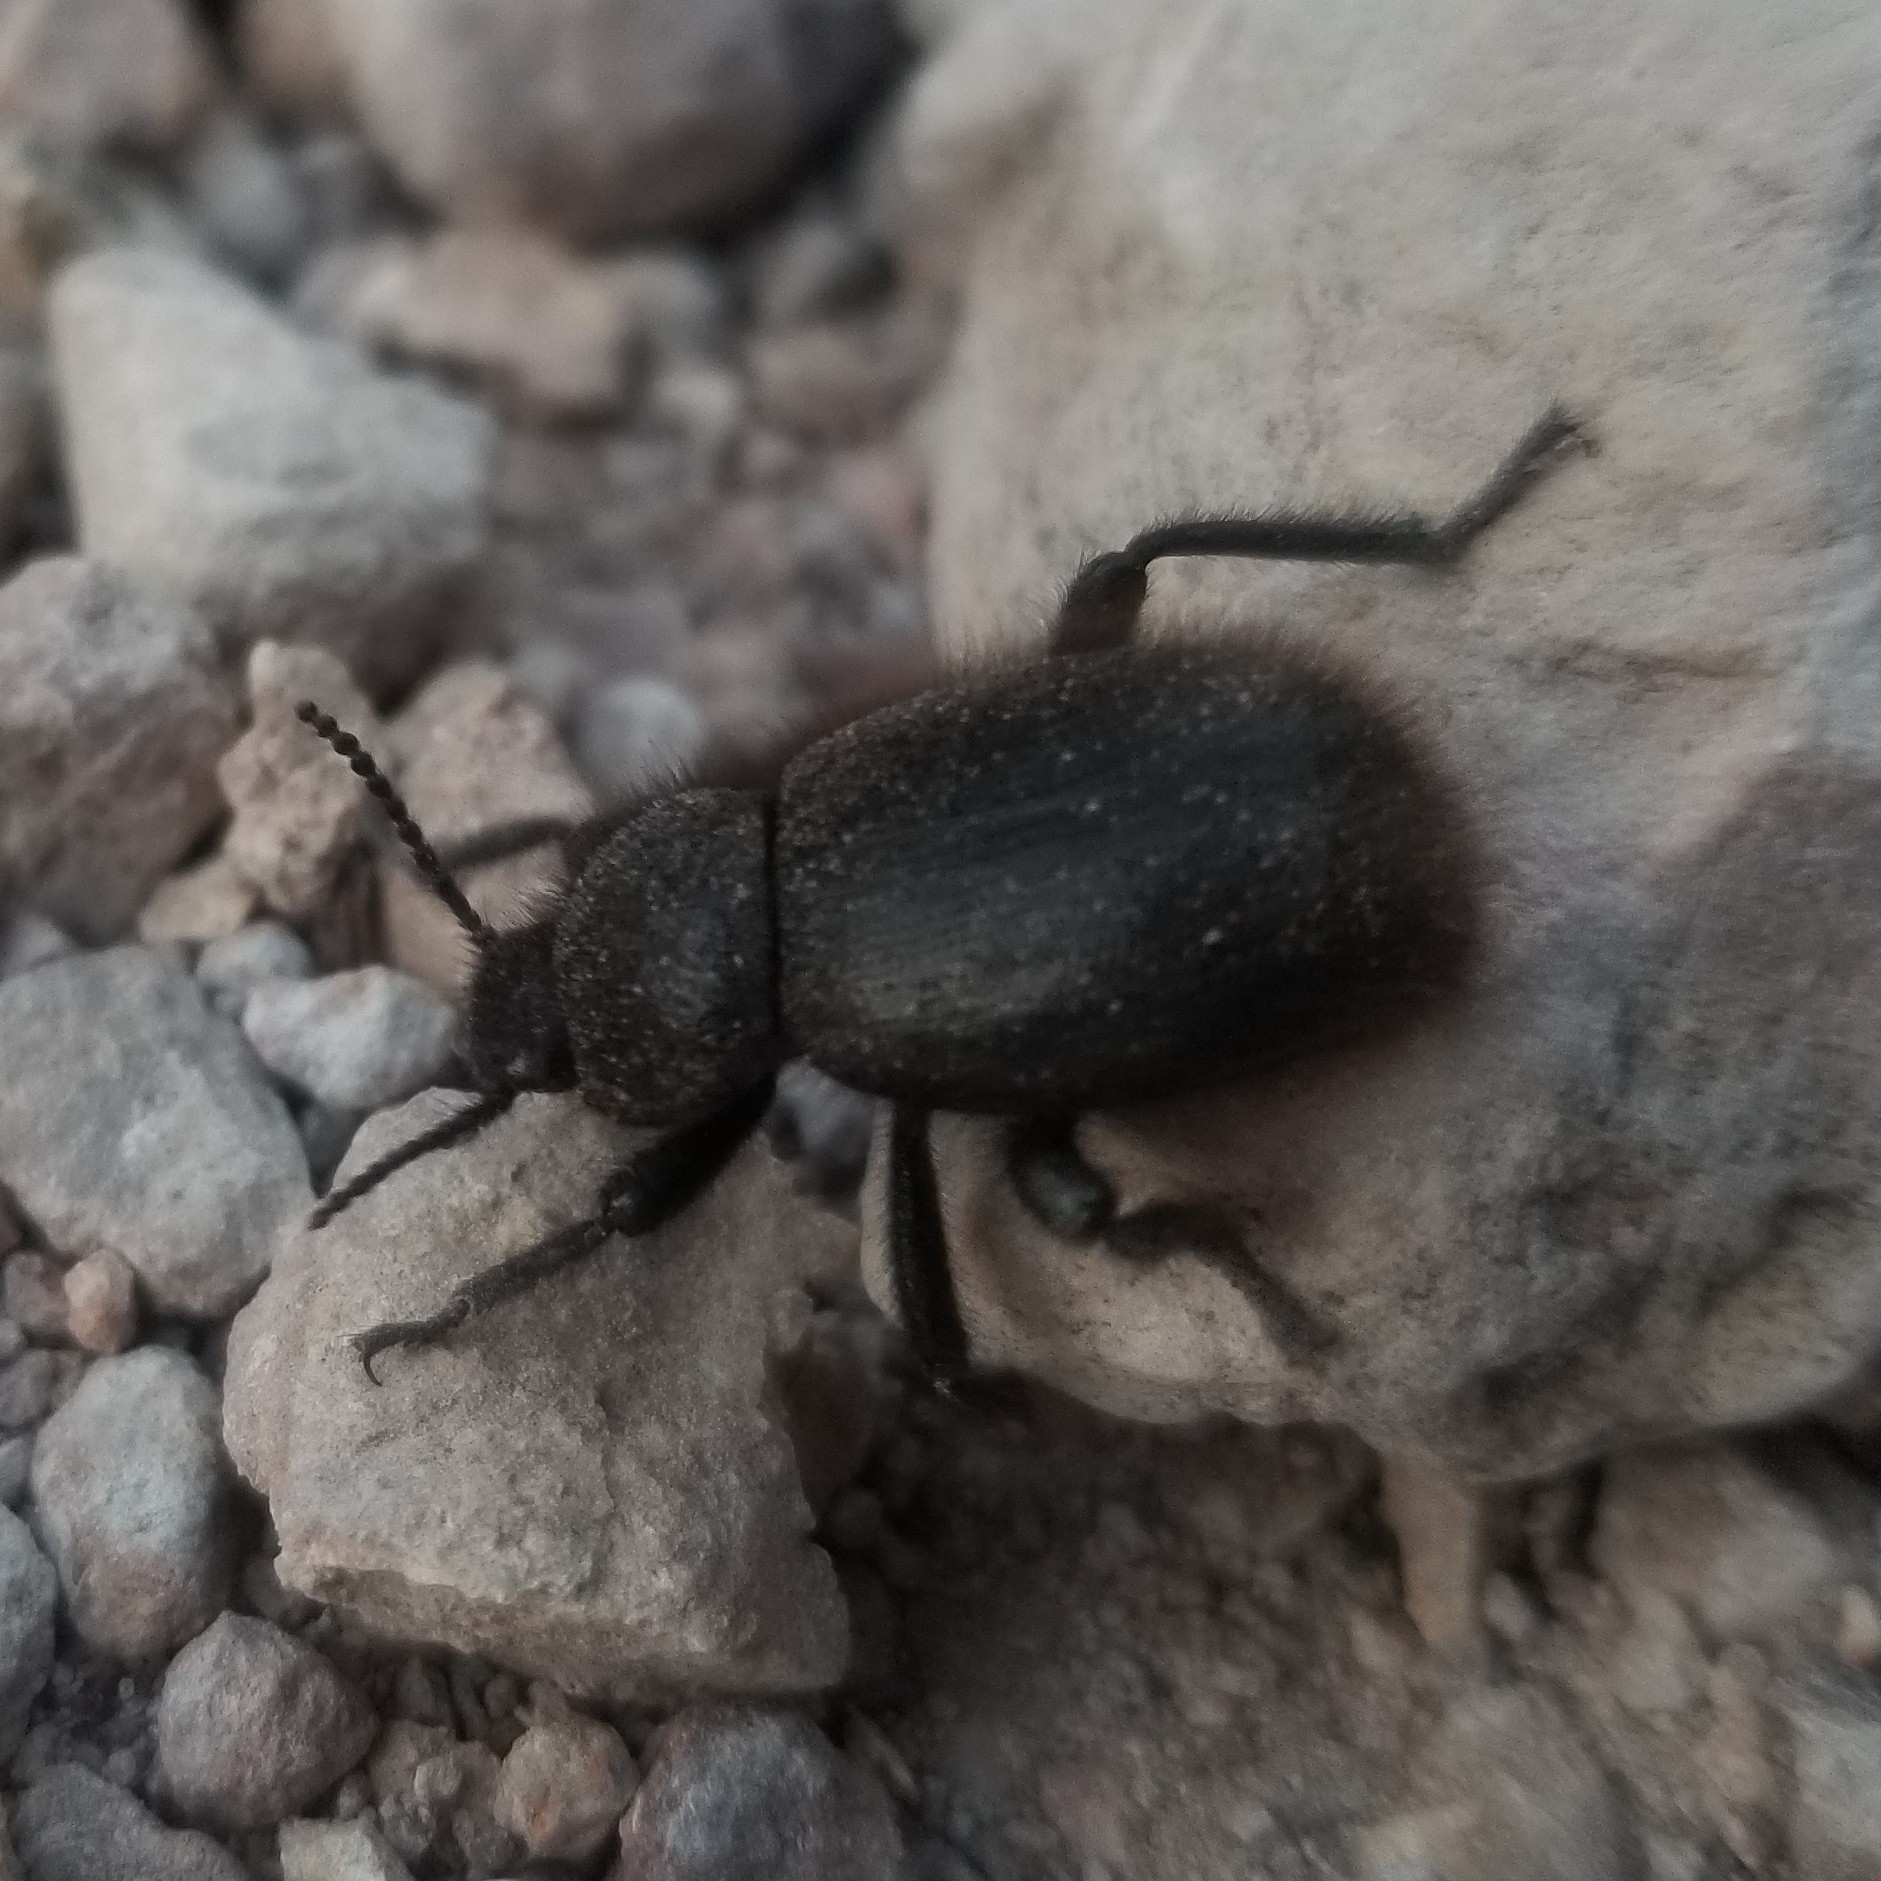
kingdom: Animalia
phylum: Arthropoda
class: Insecta
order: Coleoptera
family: Tenebrionidae
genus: Eleodes
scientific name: Eleodes osculans
